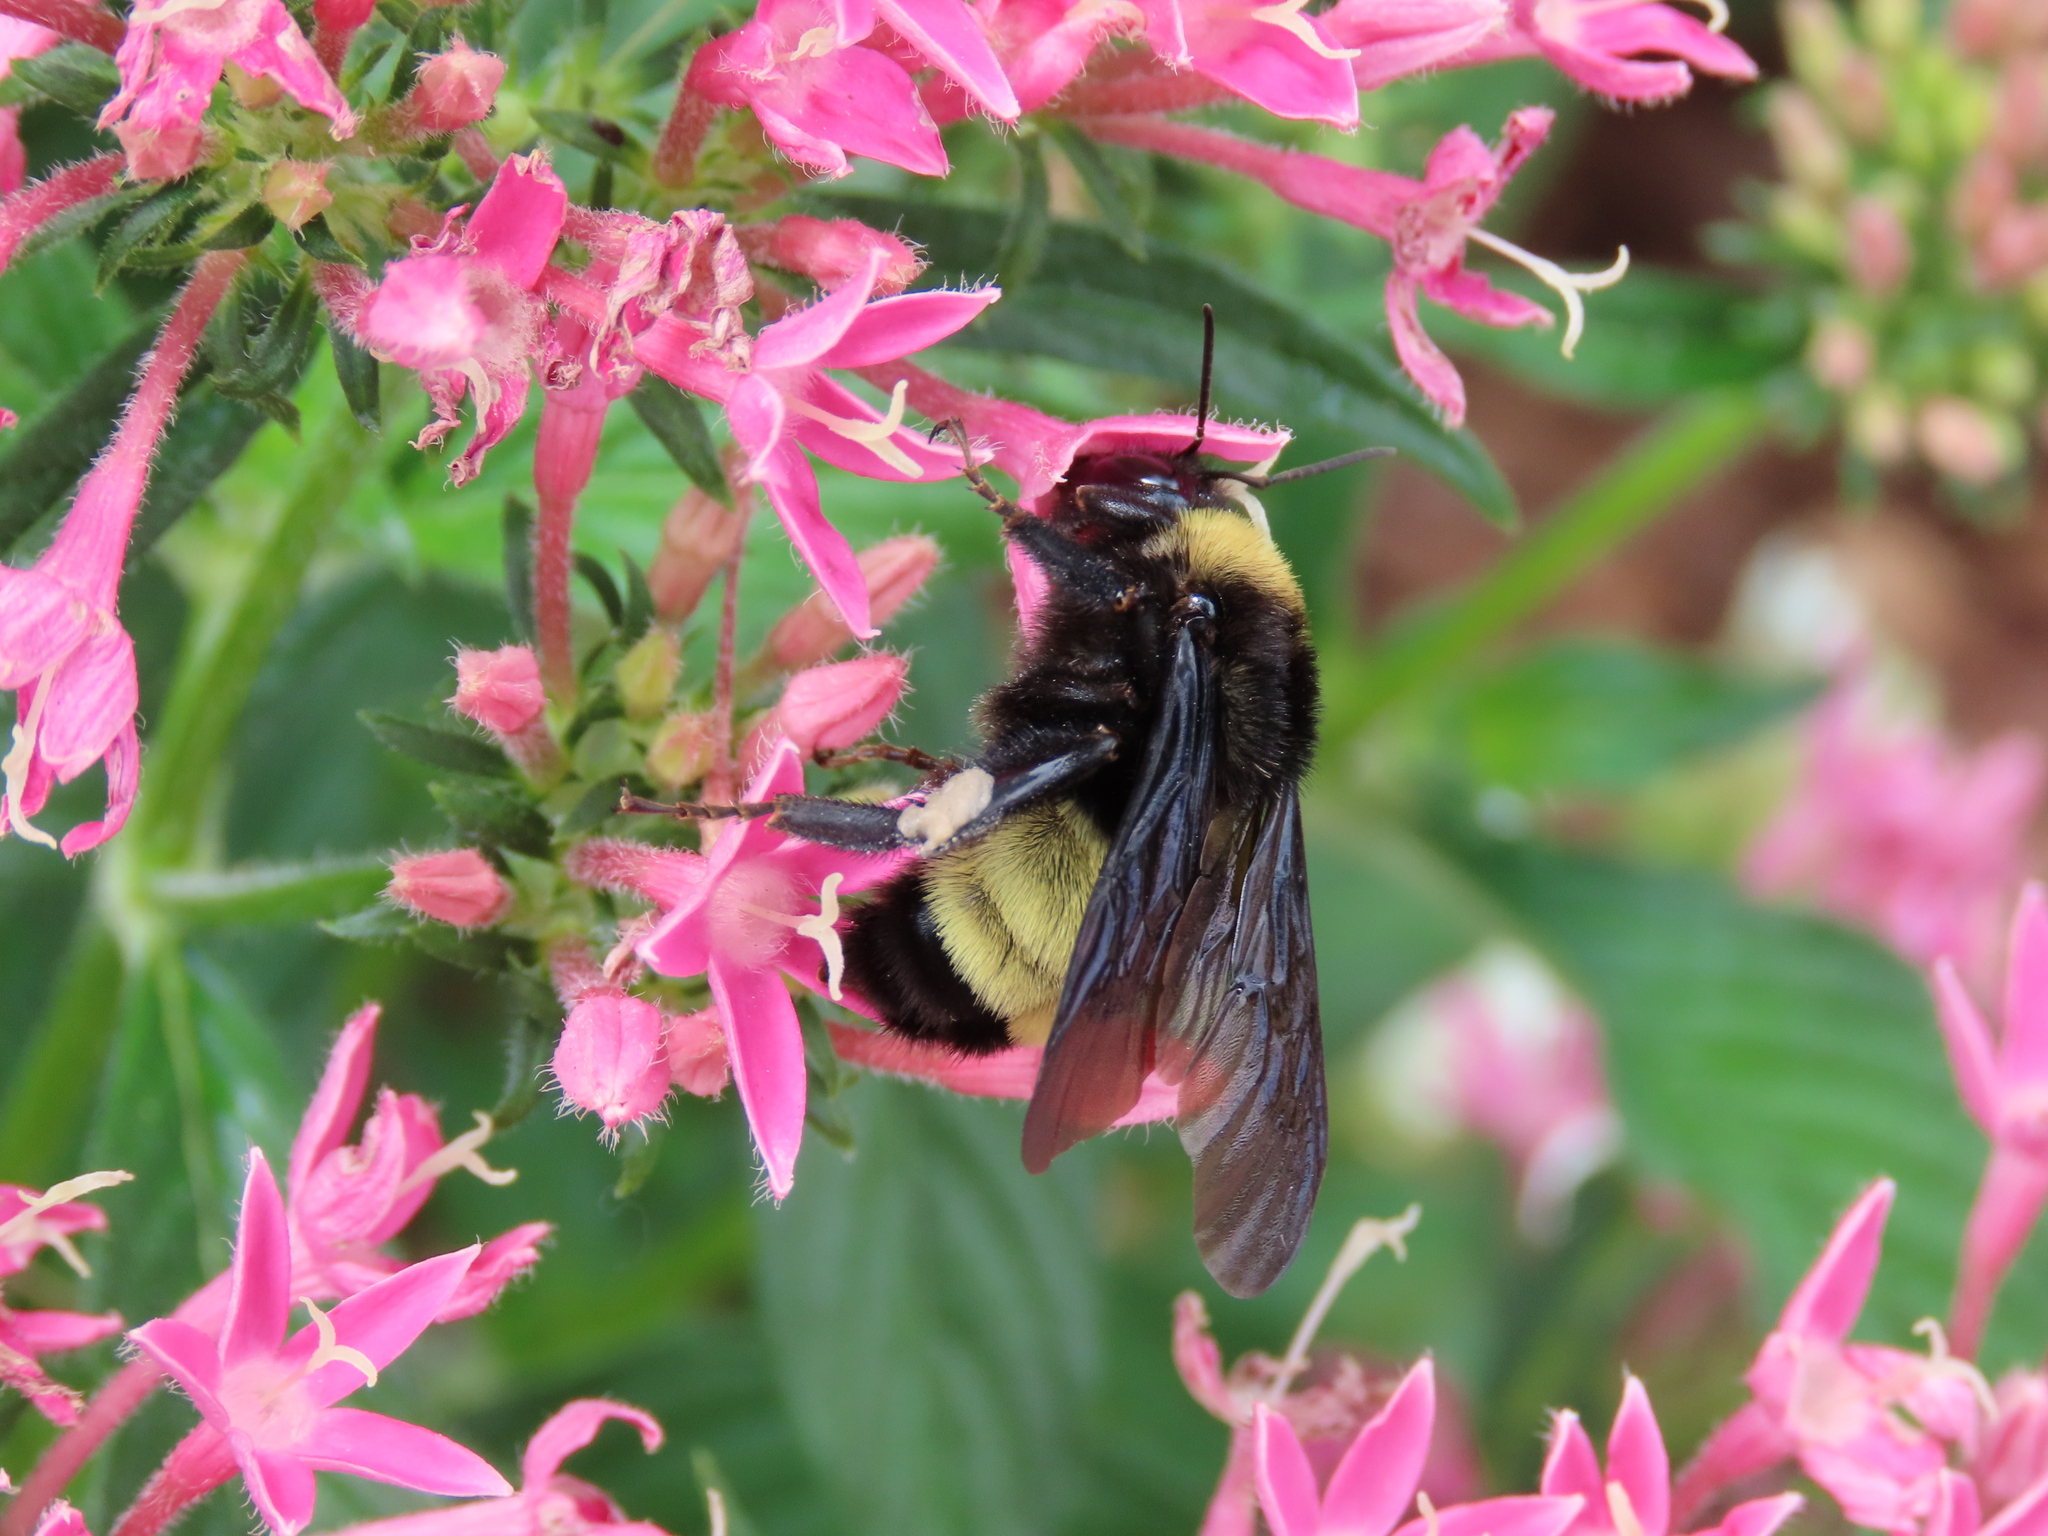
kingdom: Animalia
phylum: Arthropoda
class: Insecta
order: Hymenoptera
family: Apidae
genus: Bombus
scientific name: Bombus pensylvanicus
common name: Bumble bee
